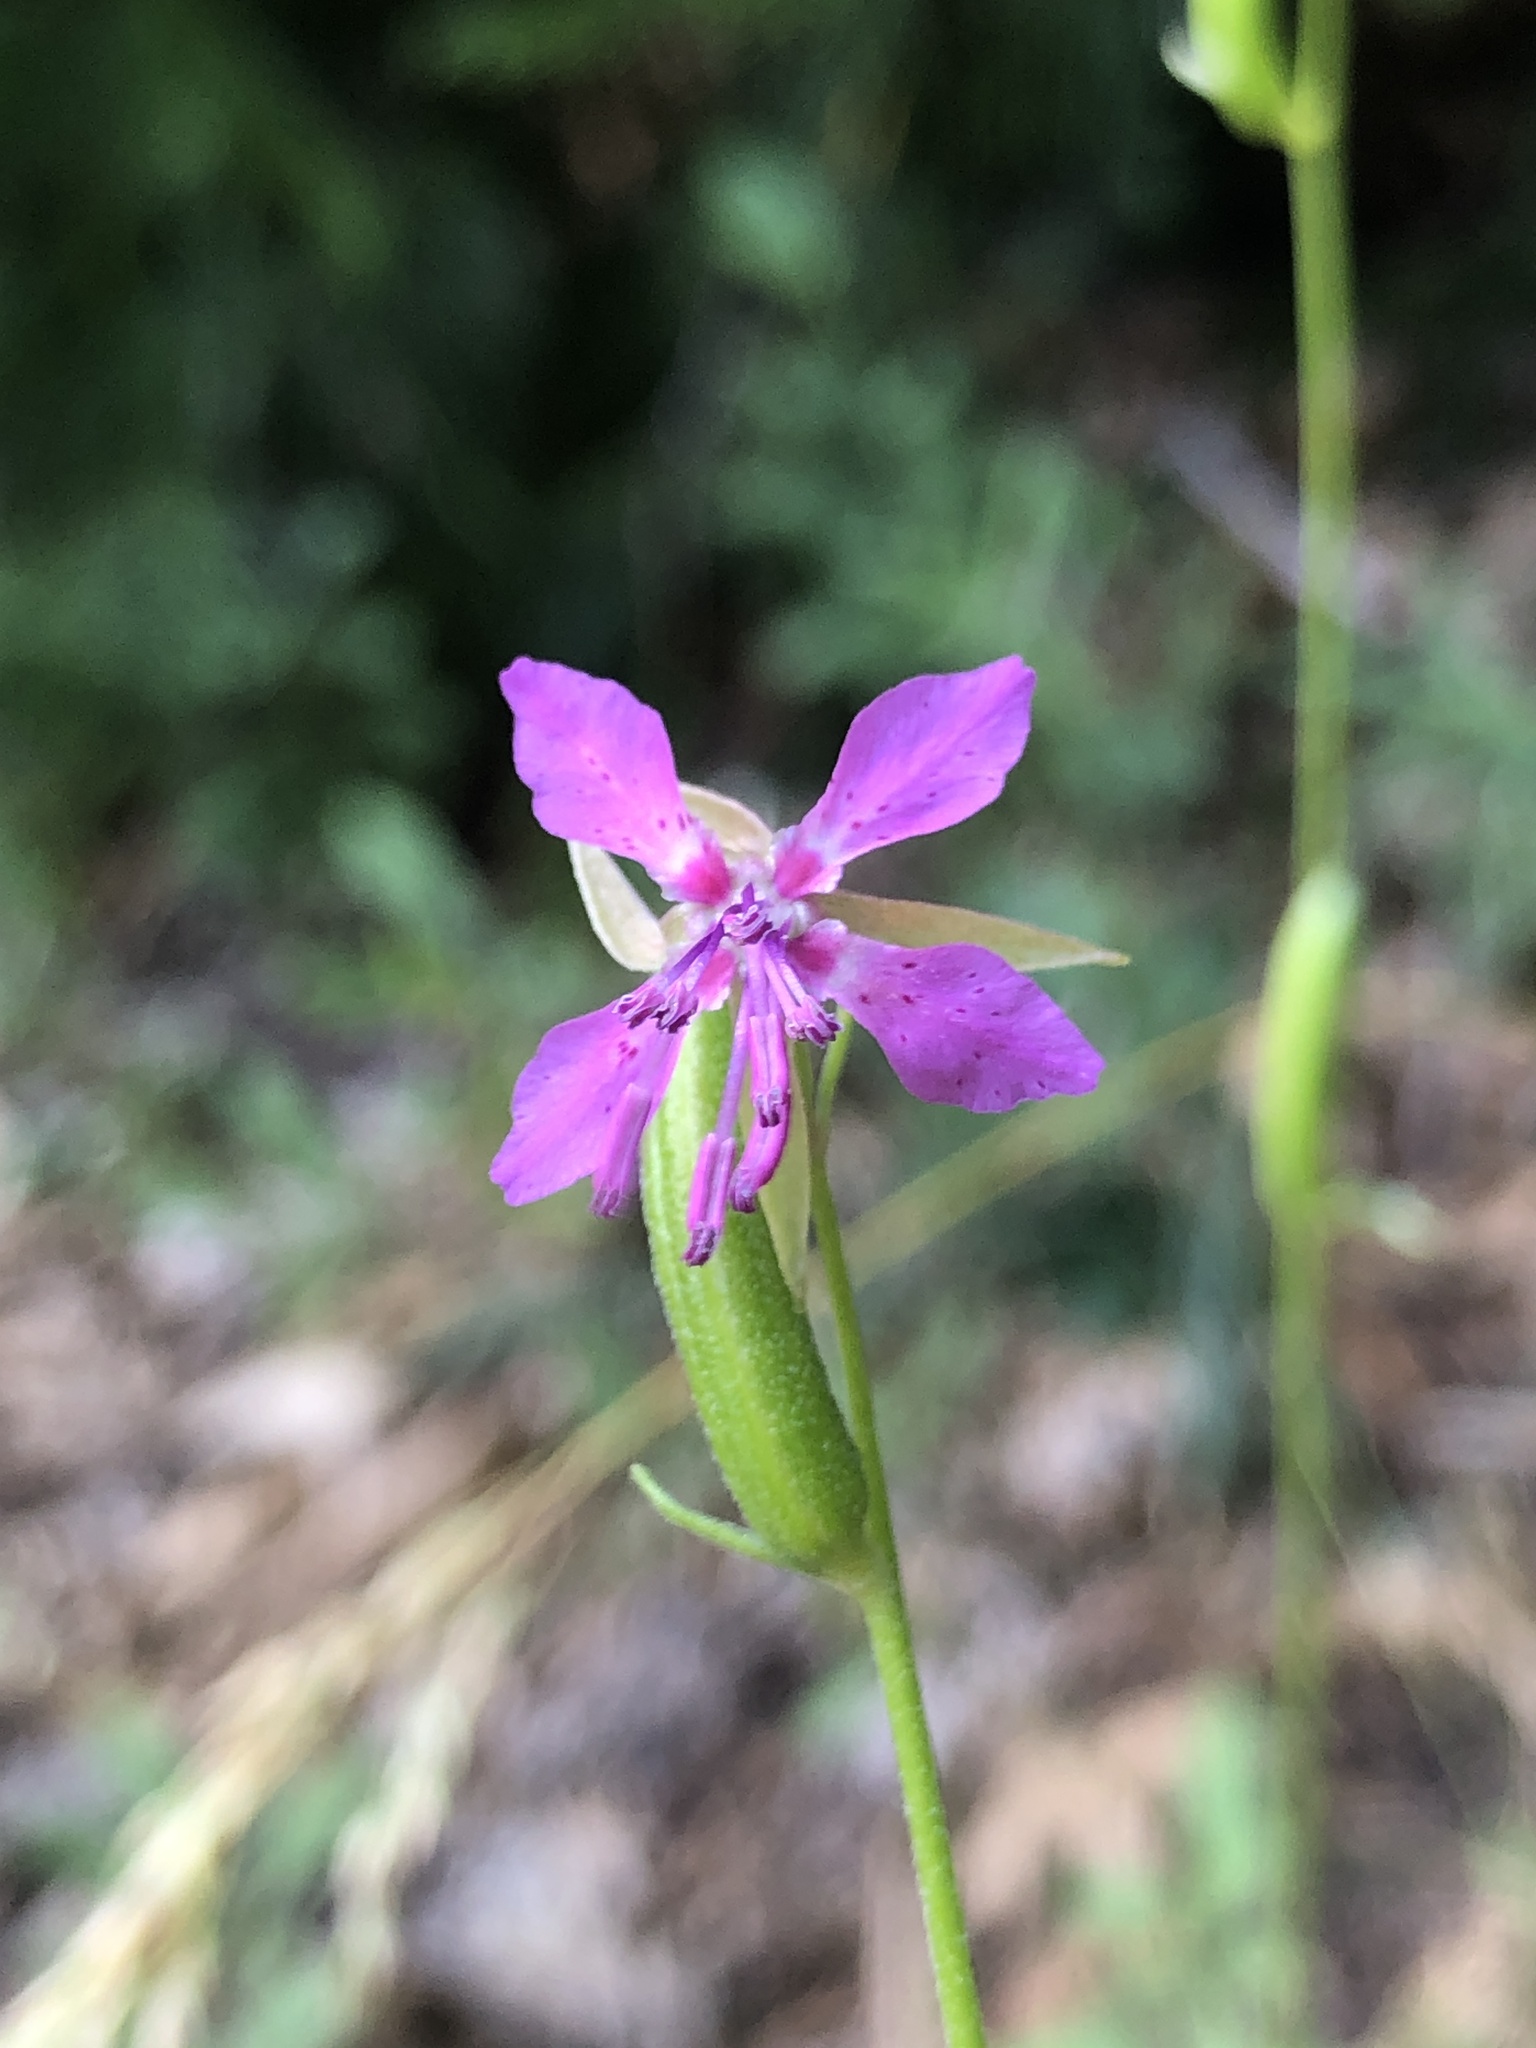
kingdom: Plantae
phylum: Tracheophyta
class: Magnoliopsida
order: Myrtales
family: Onagraceae
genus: Clarkia
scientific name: Clarkia rhomboidea
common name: Broadleaf clarkia
